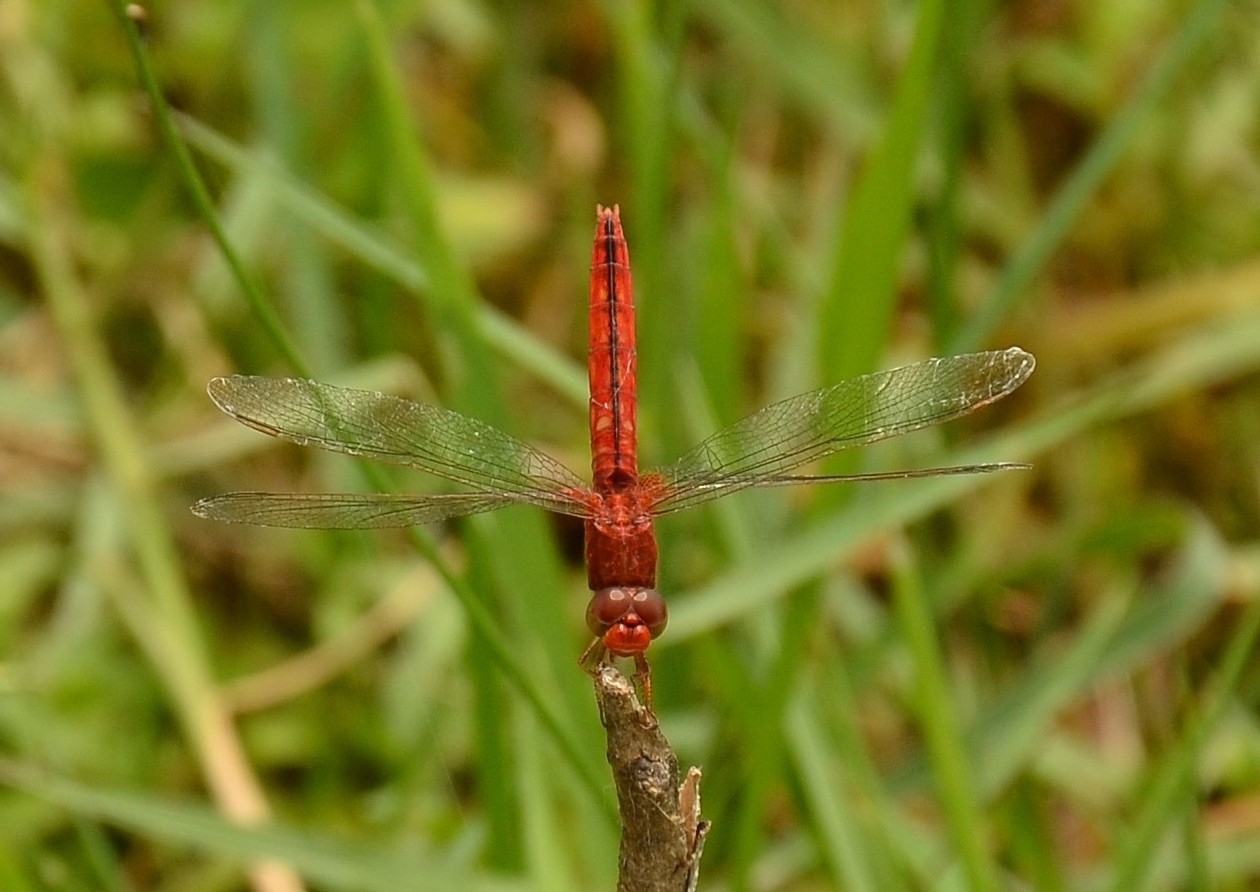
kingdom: Animalia
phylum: Arthropoda
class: Insecta
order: Odonata
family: Libellulidae
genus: Crocothemis
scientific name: Crocothemis servilia
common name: Scarlet skimmer
